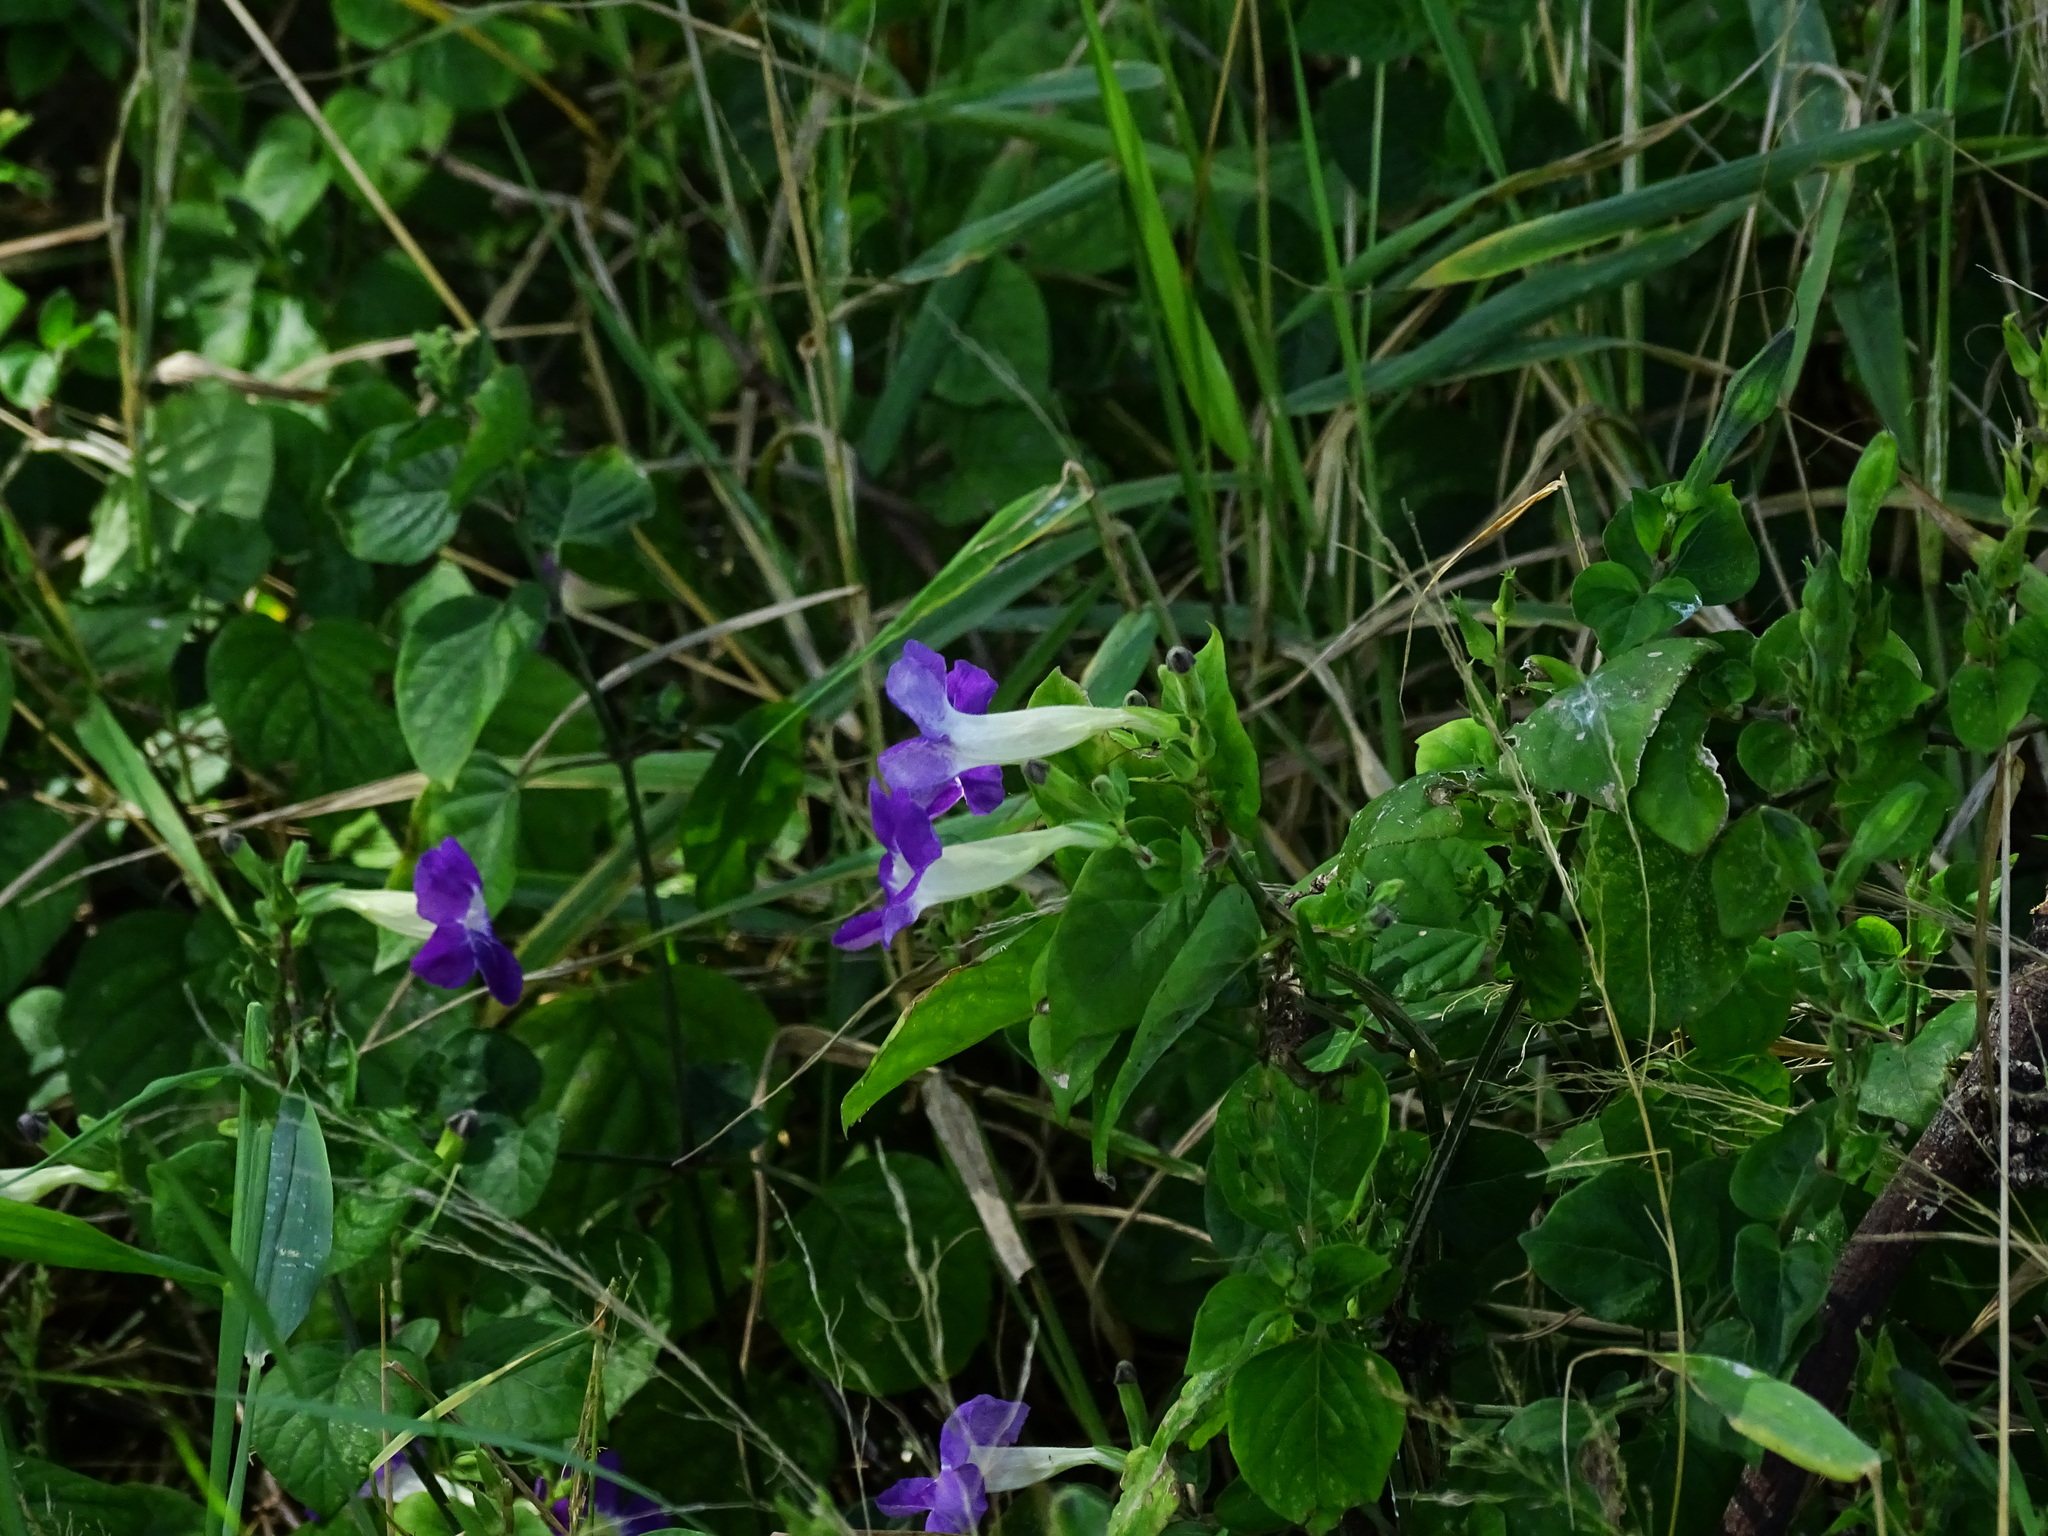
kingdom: Plantae
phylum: Tracheophyta
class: Magnoliopsida
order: Lamiales
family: Acanthaceae
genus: Asystasia
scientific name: Asystasia gangetica
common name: Chinese violet
